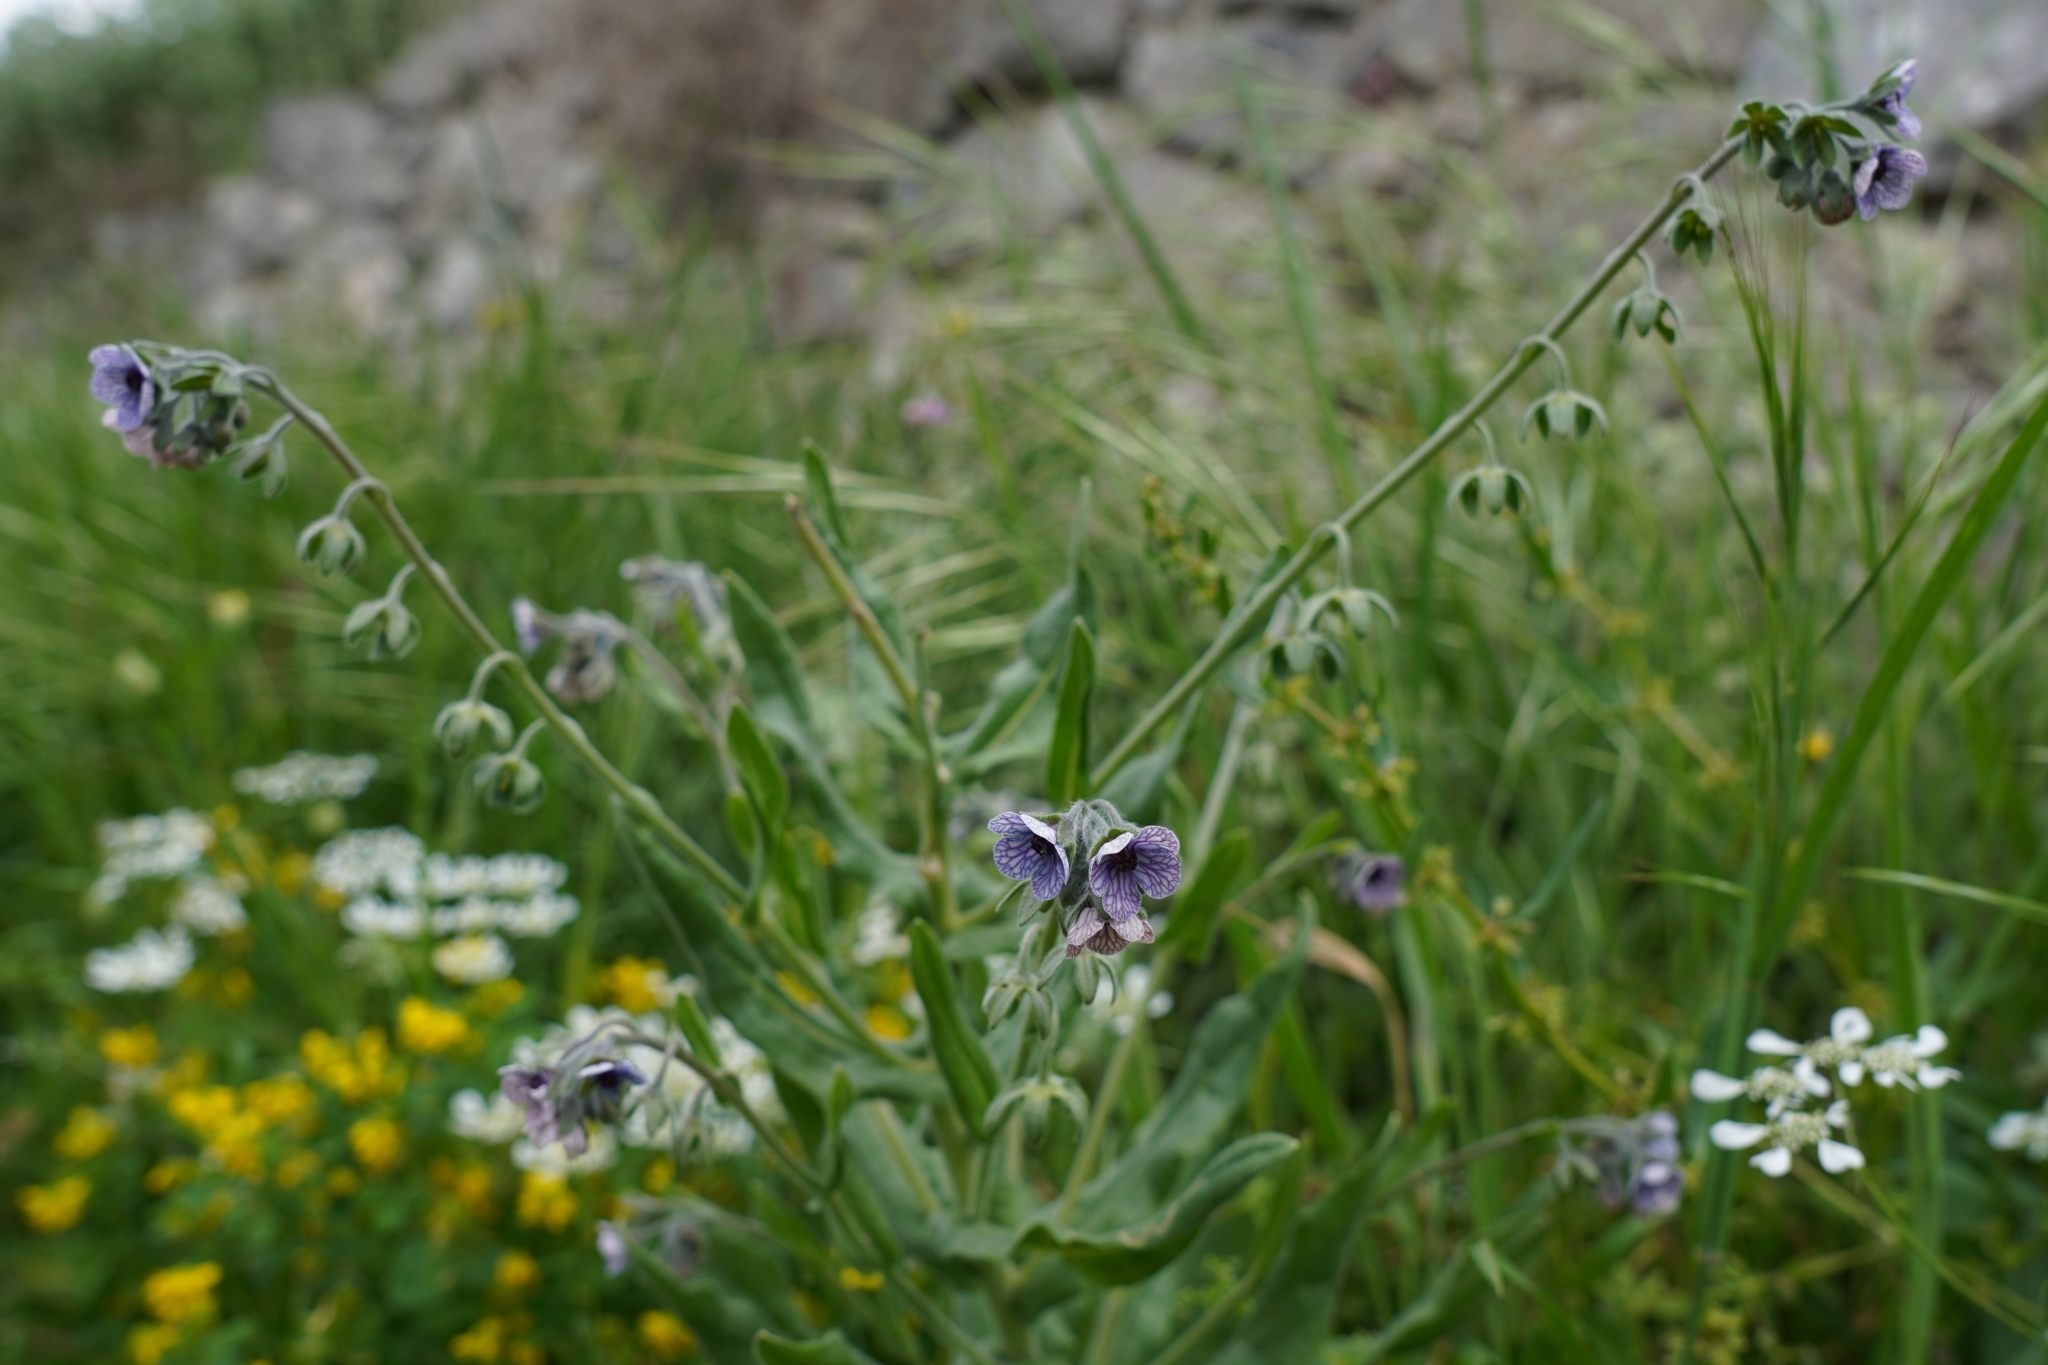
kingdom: Plantae
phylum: Tracheophyta
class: Magnoliopsida
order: Boraginales
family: Boraginaceae
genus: Cynoglossum
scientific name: Cynoglossum creticum
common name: Blue hound's tongue
